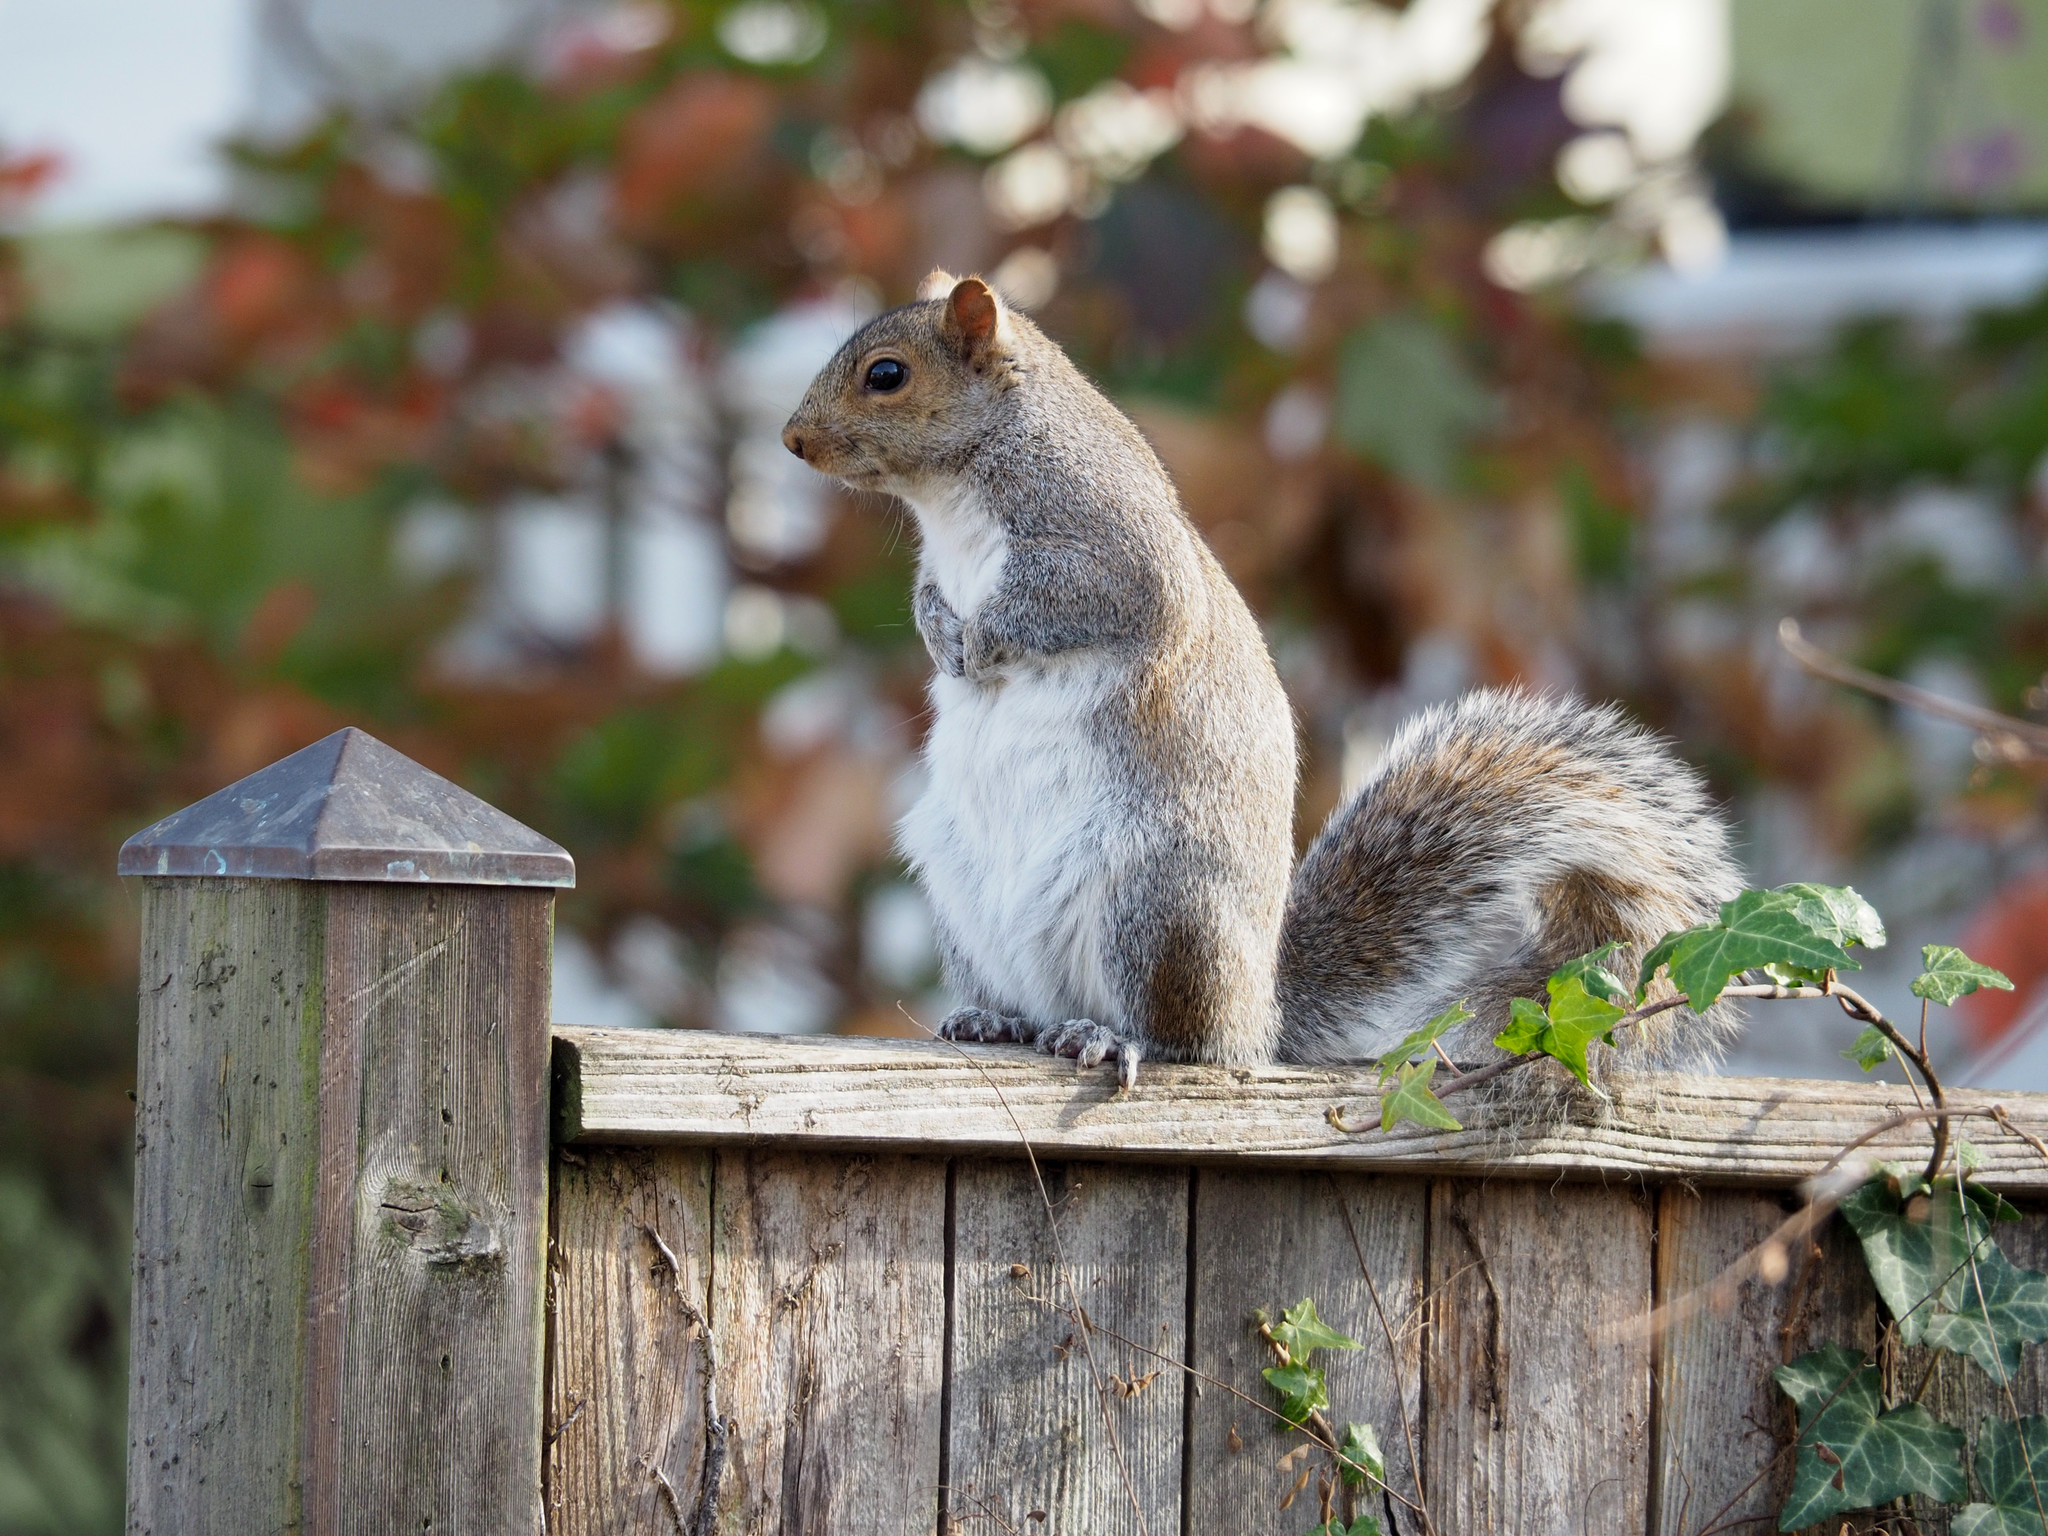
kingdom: Animalia
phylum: Chordata
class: Mammalia
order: Rodentia
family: Sciuridae
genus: Sciurus
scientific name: Sciurus carolinensis
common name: Eastern gray squirrel
